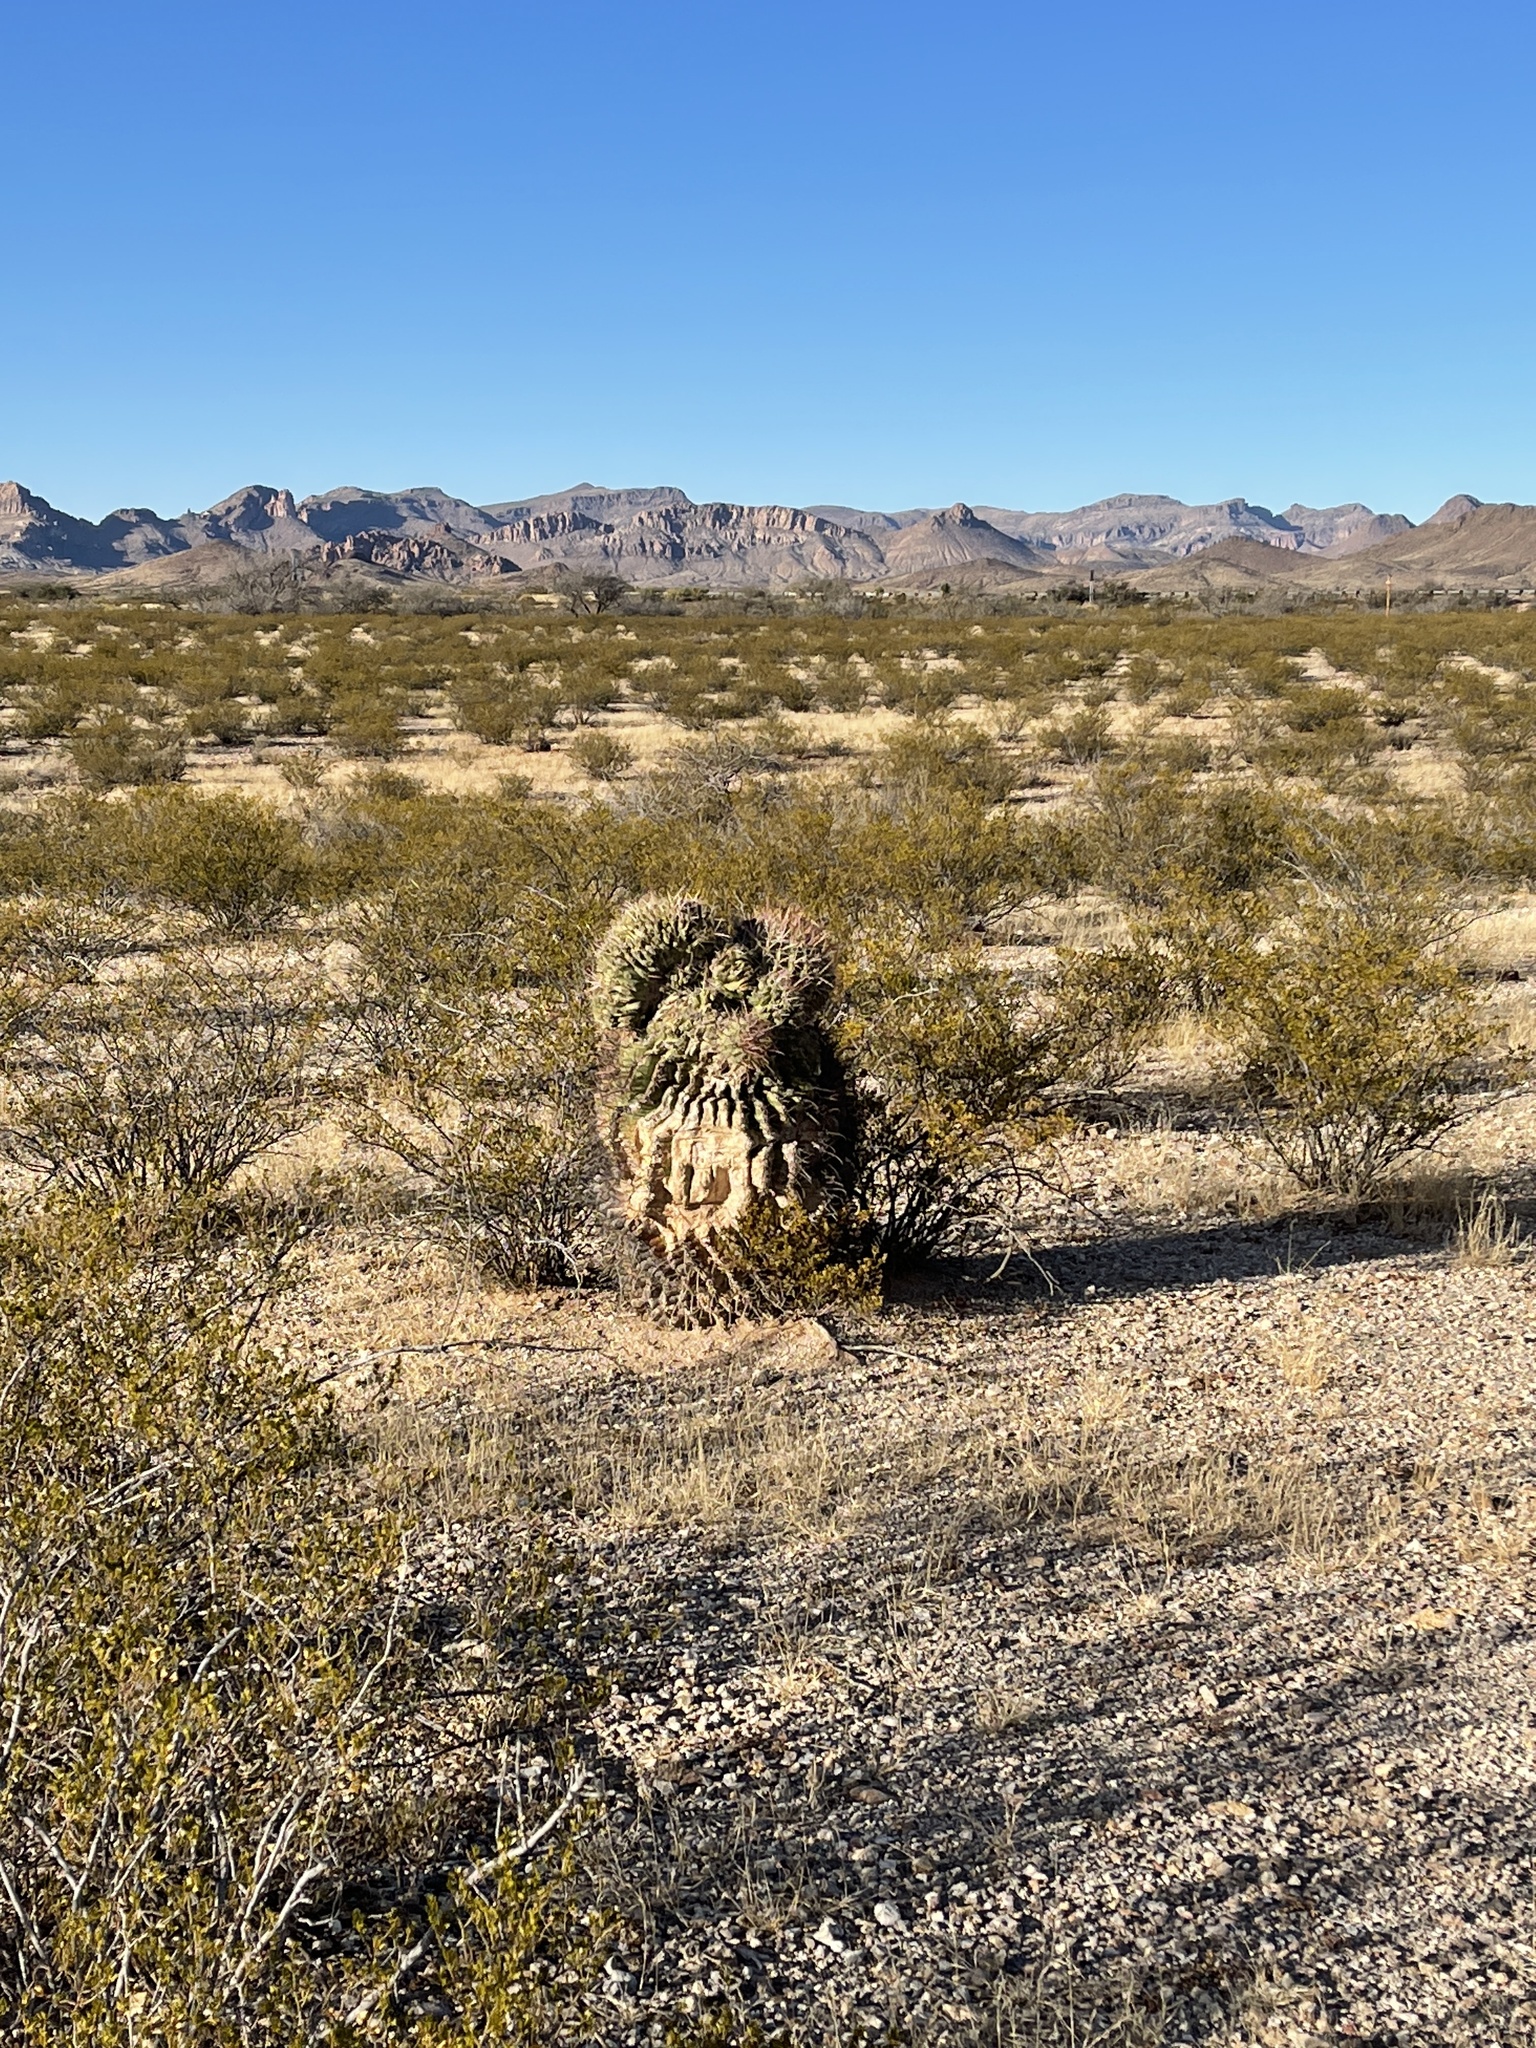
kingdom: Plantae
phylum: Tracheophyta
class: Magnoliopsida
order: Caryophyllales
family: Cactaceae
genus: Ferocactus
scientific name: Ferocactus wislizeni
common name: Candy barrel cactus
